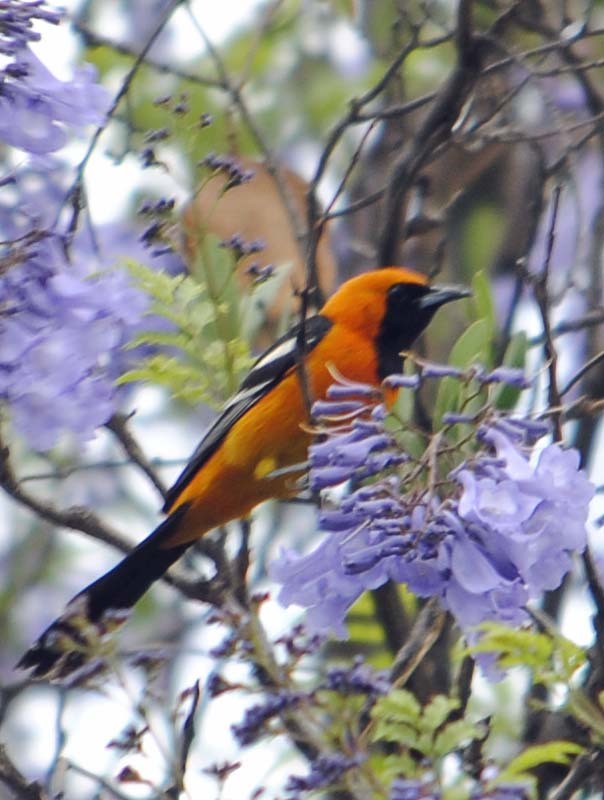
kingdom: Animalia
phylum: Chordata
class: Aves
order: Passeriformes
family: Icteridae
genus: Icterus
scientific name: Icterus cucullatus
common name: Hooded oriole
